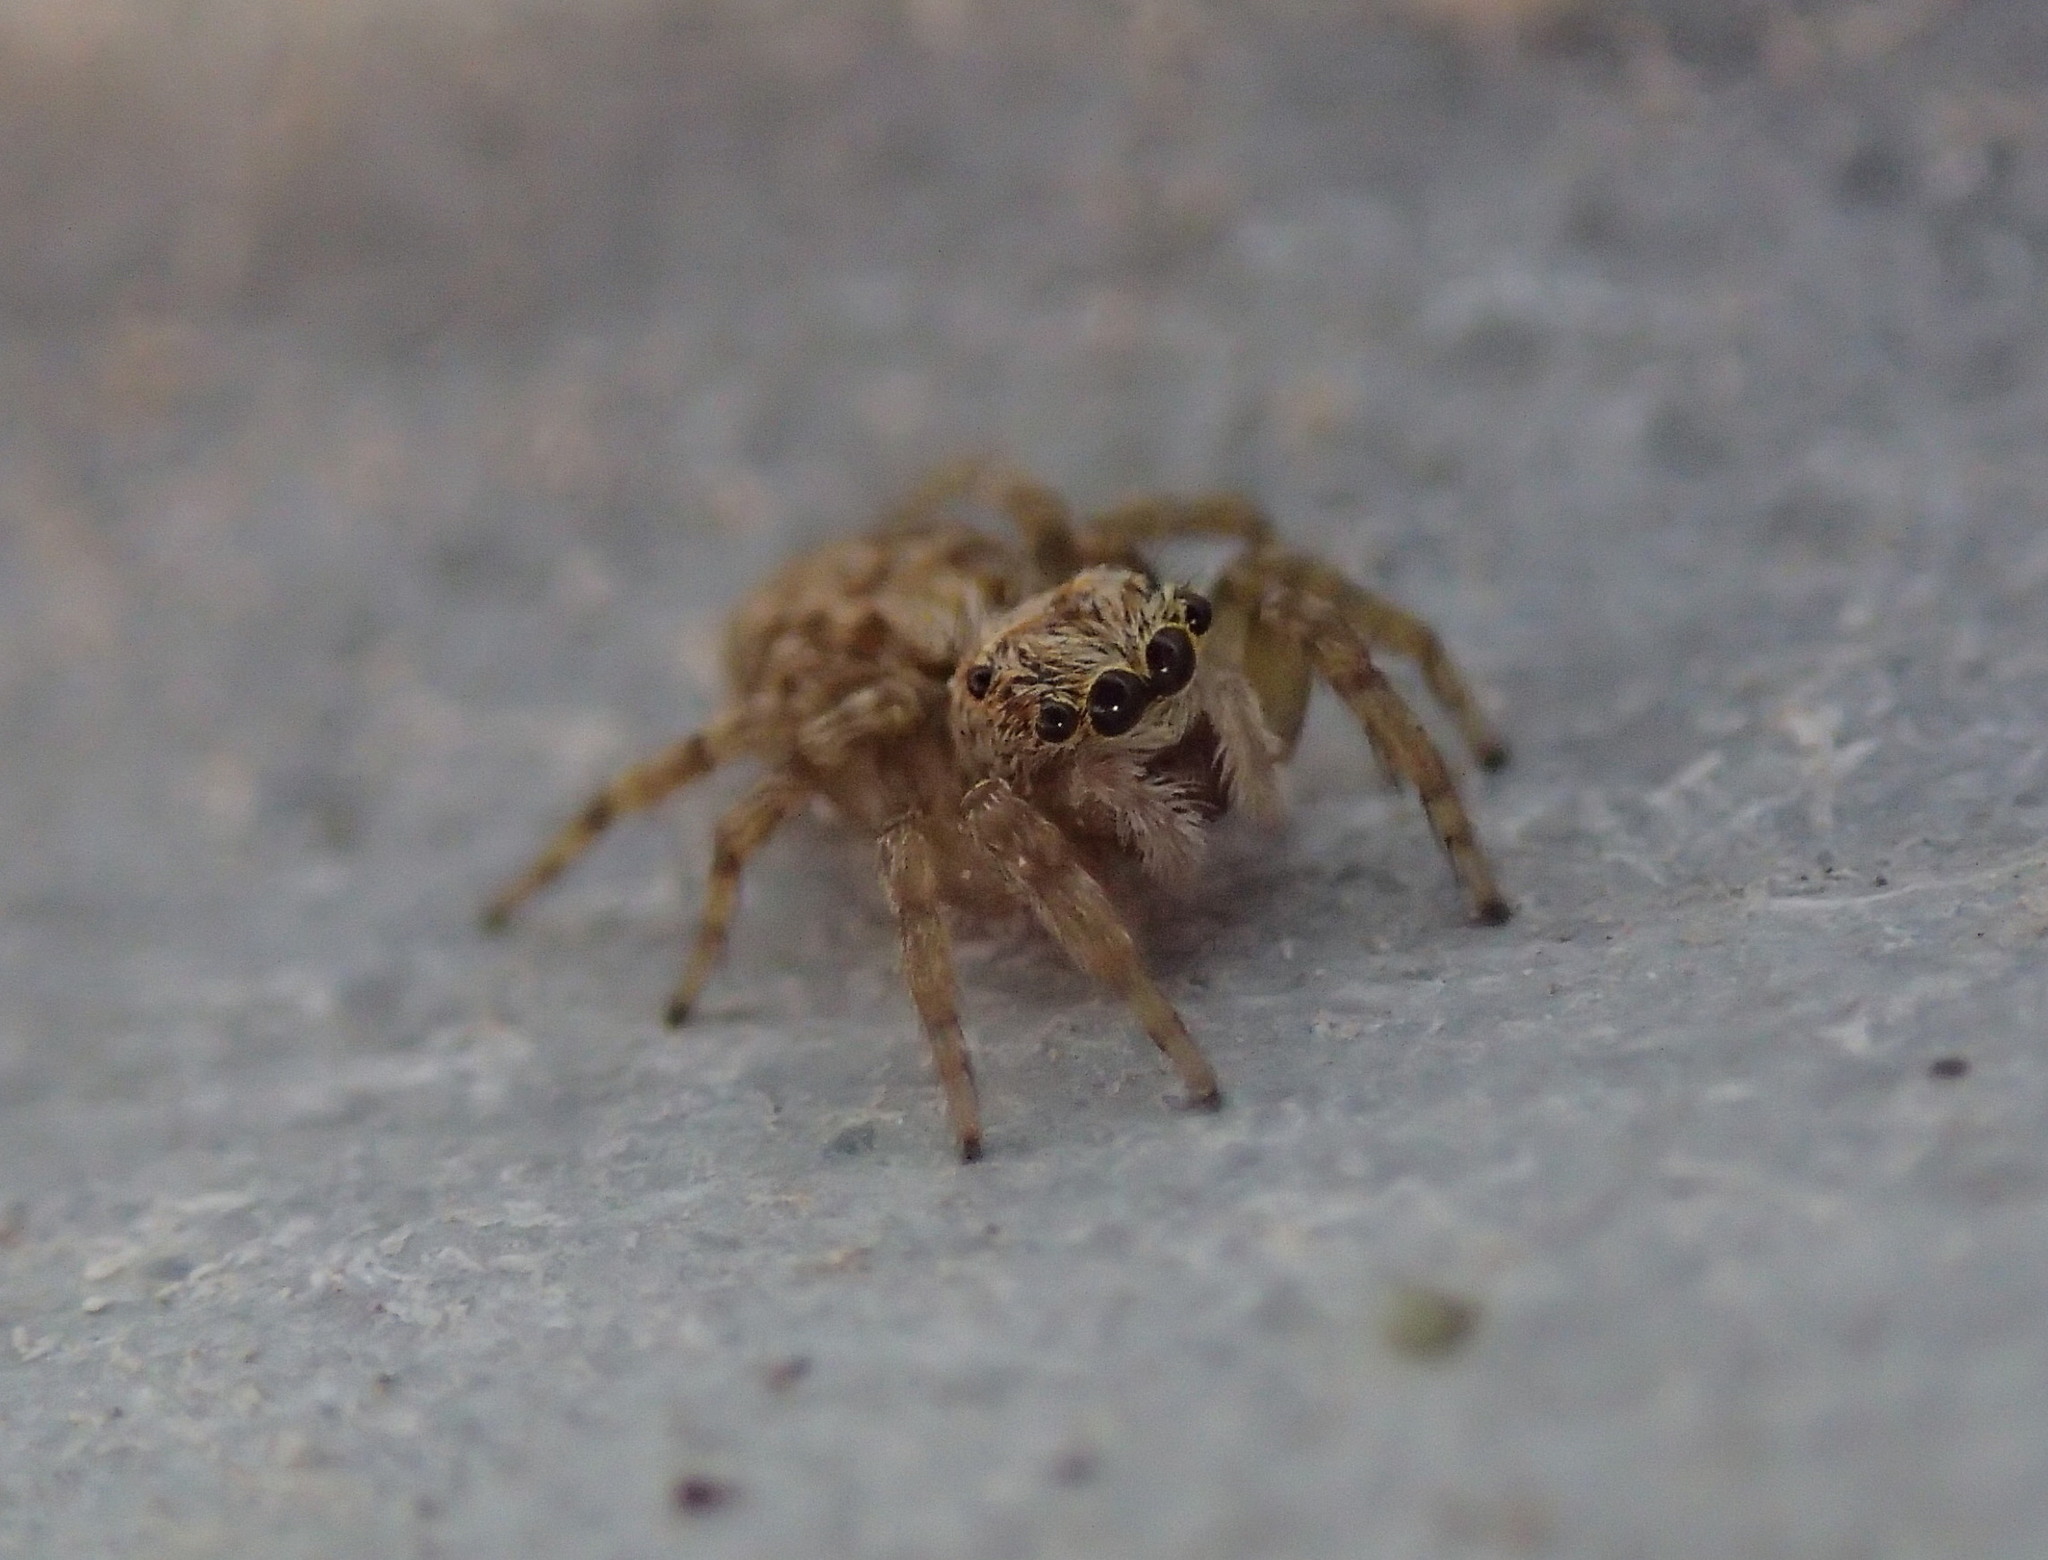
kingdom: Animalia
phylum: Arthropoda
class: Arachnida
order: Araneae
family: Salticidae
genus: Pseudeuophrys
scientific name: Pseudeuophrys vafra
